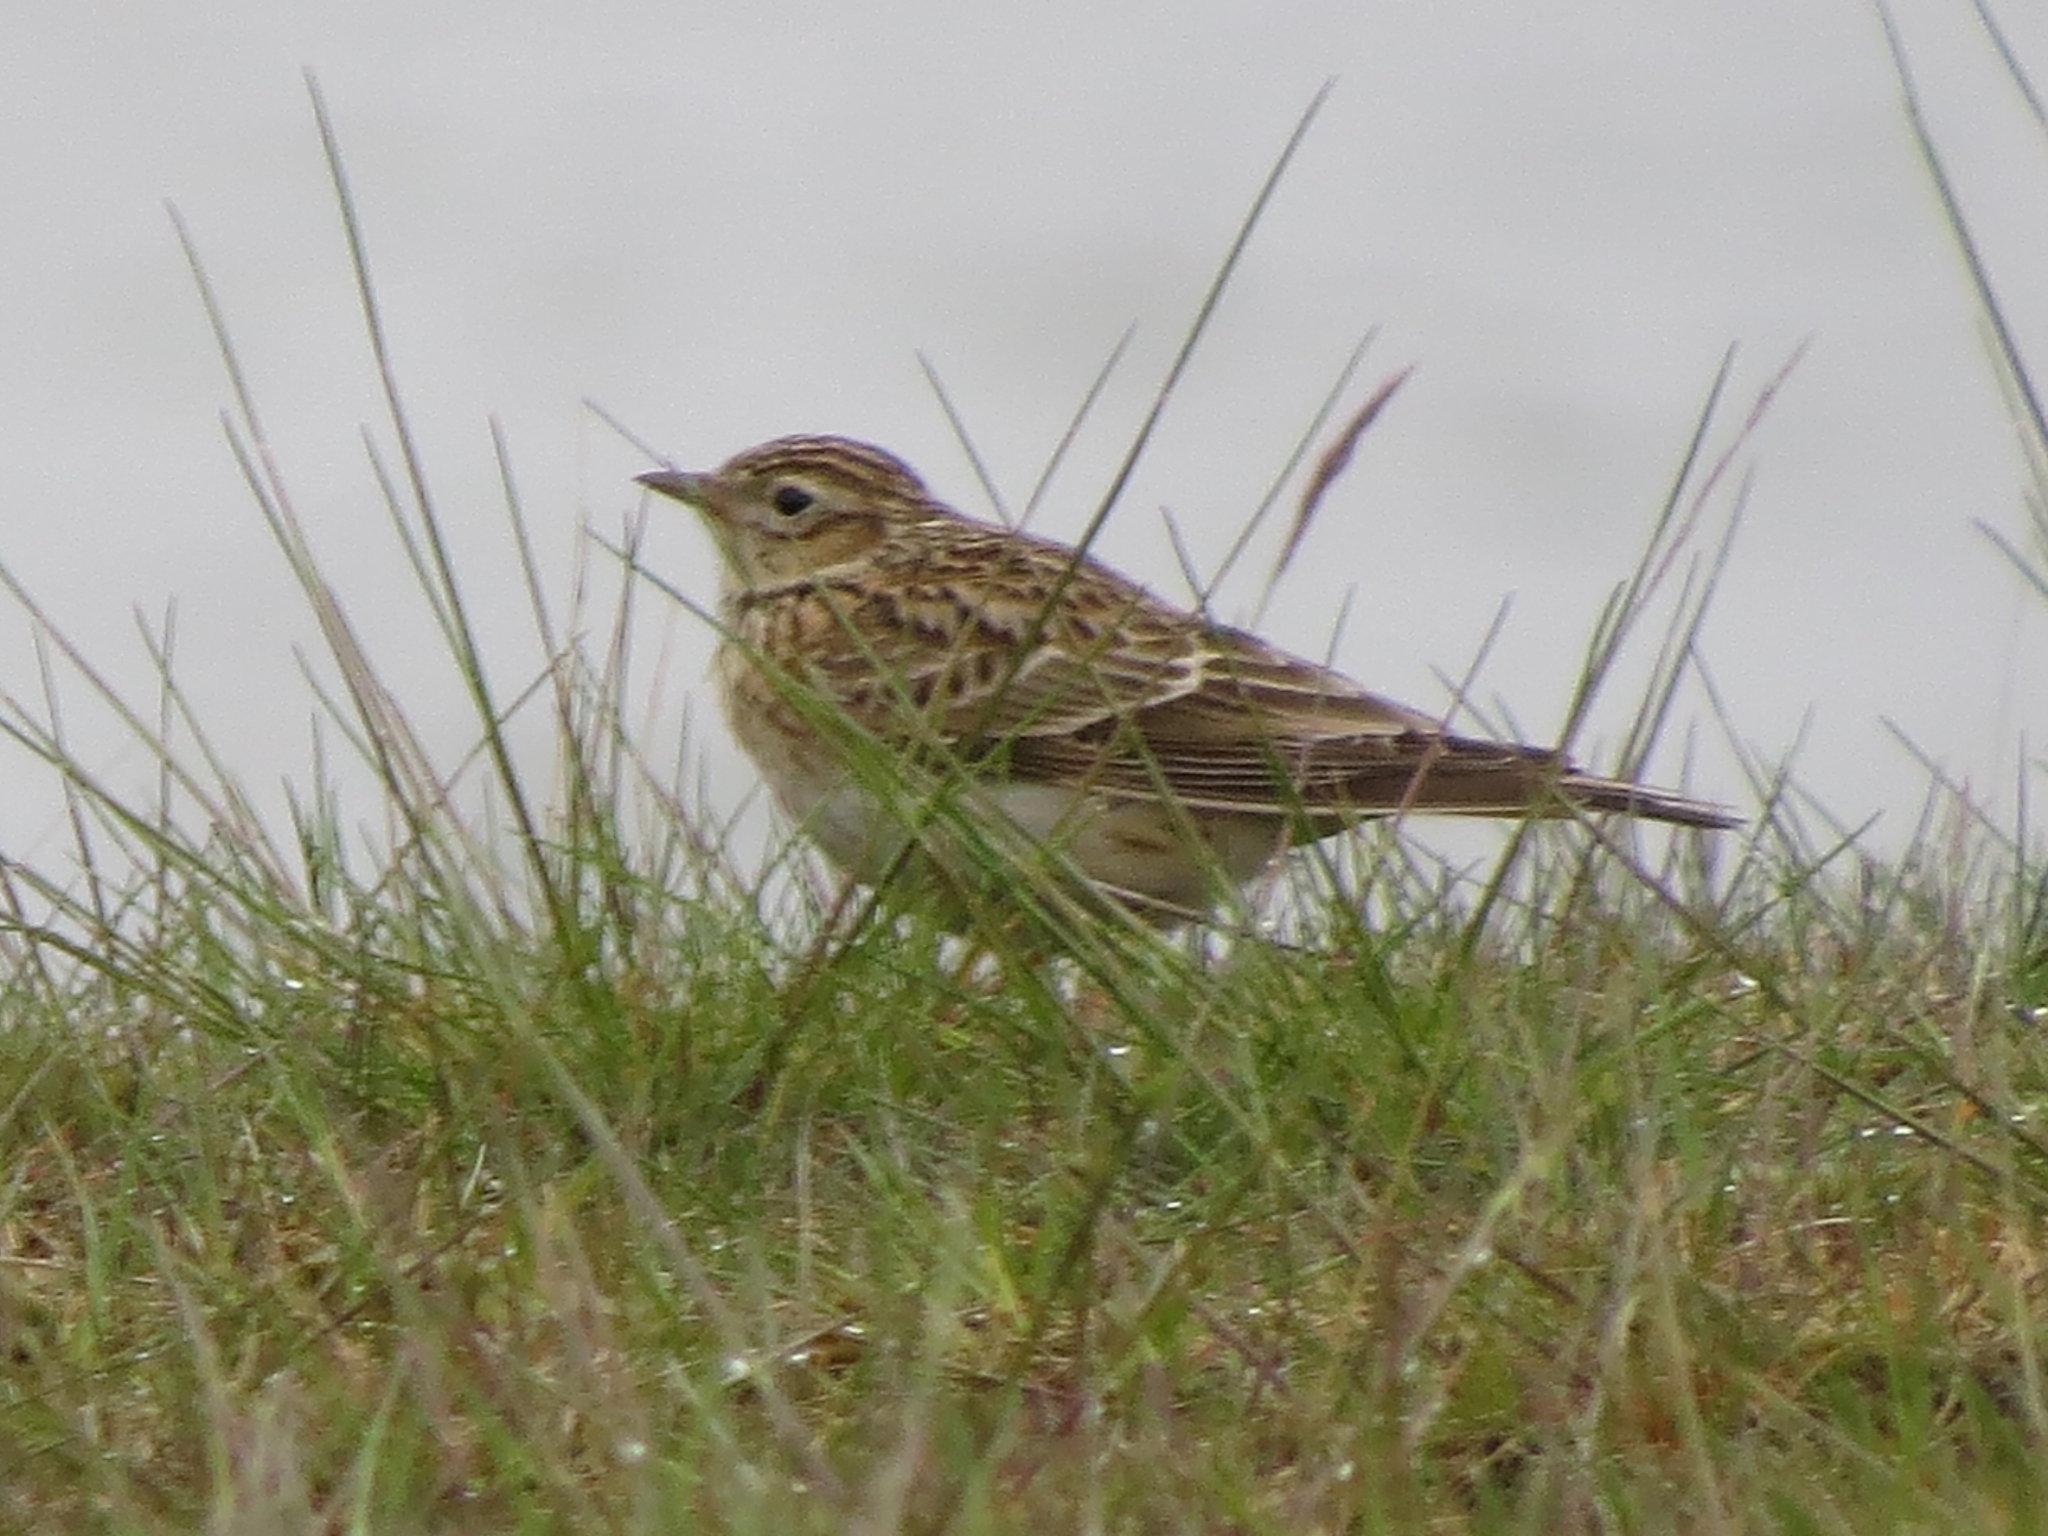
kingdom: Animalia
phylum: Chordata
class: Aves
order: Passeriformes
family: Alaudidae
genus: Alauda
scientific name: Alauda arvensis
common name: Eurasian skylark
